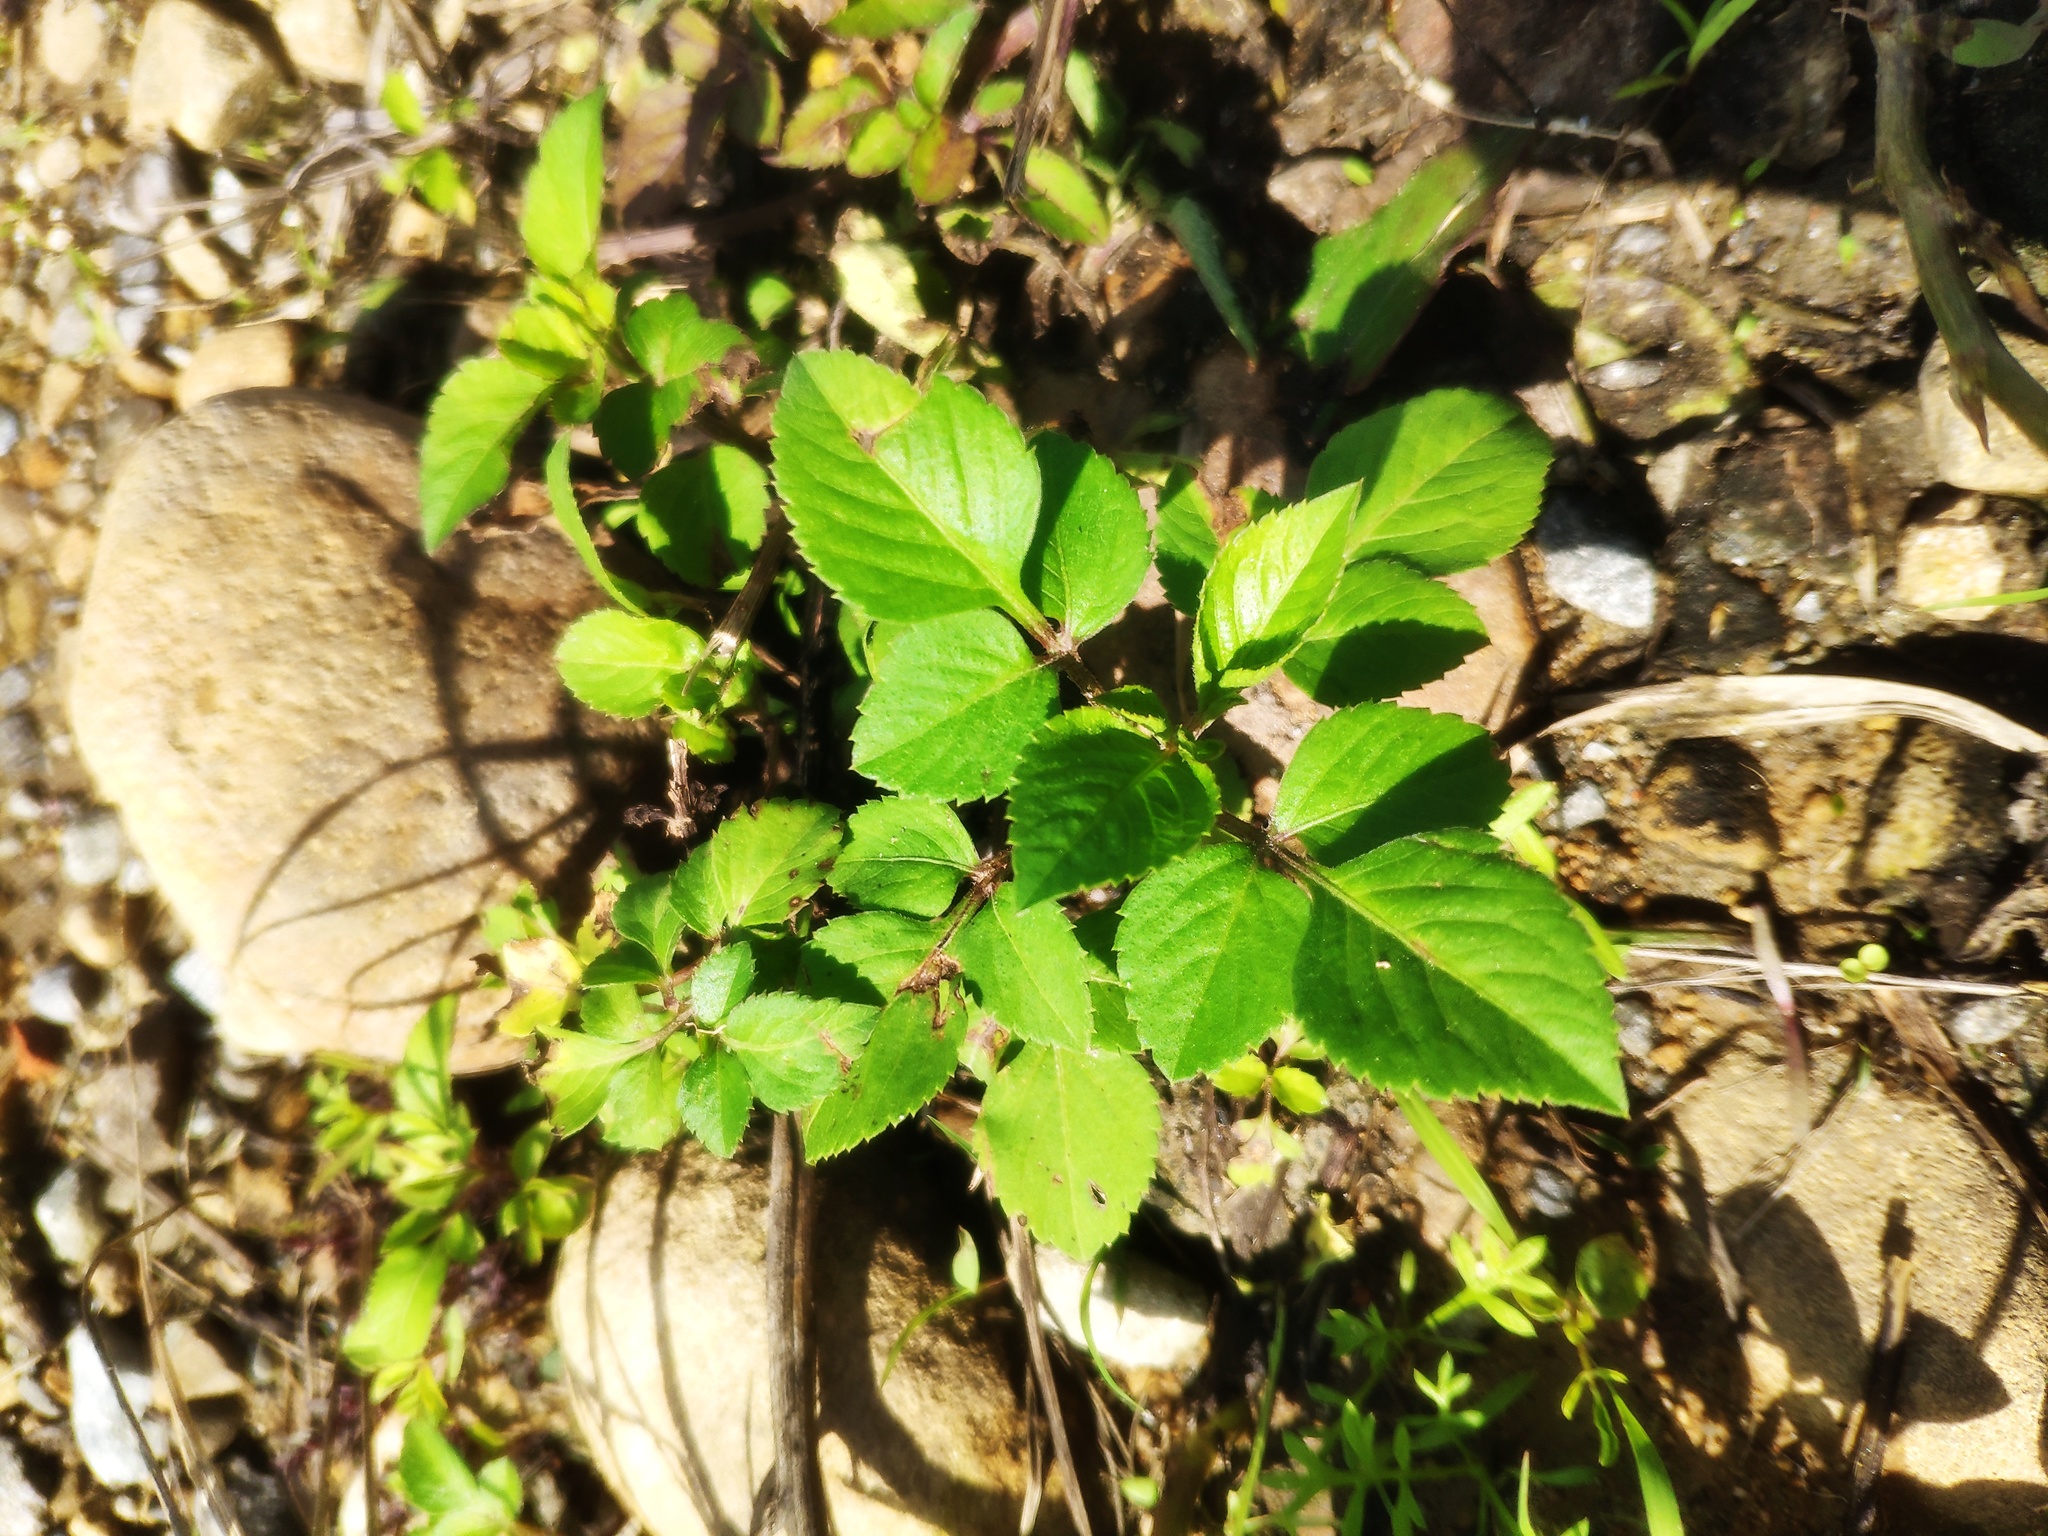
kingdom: Plantae
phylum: Tracheophyta
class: Magnoliopsida
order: Asterales
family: Asteraceae
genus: Bidens
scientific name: Bidens alba
